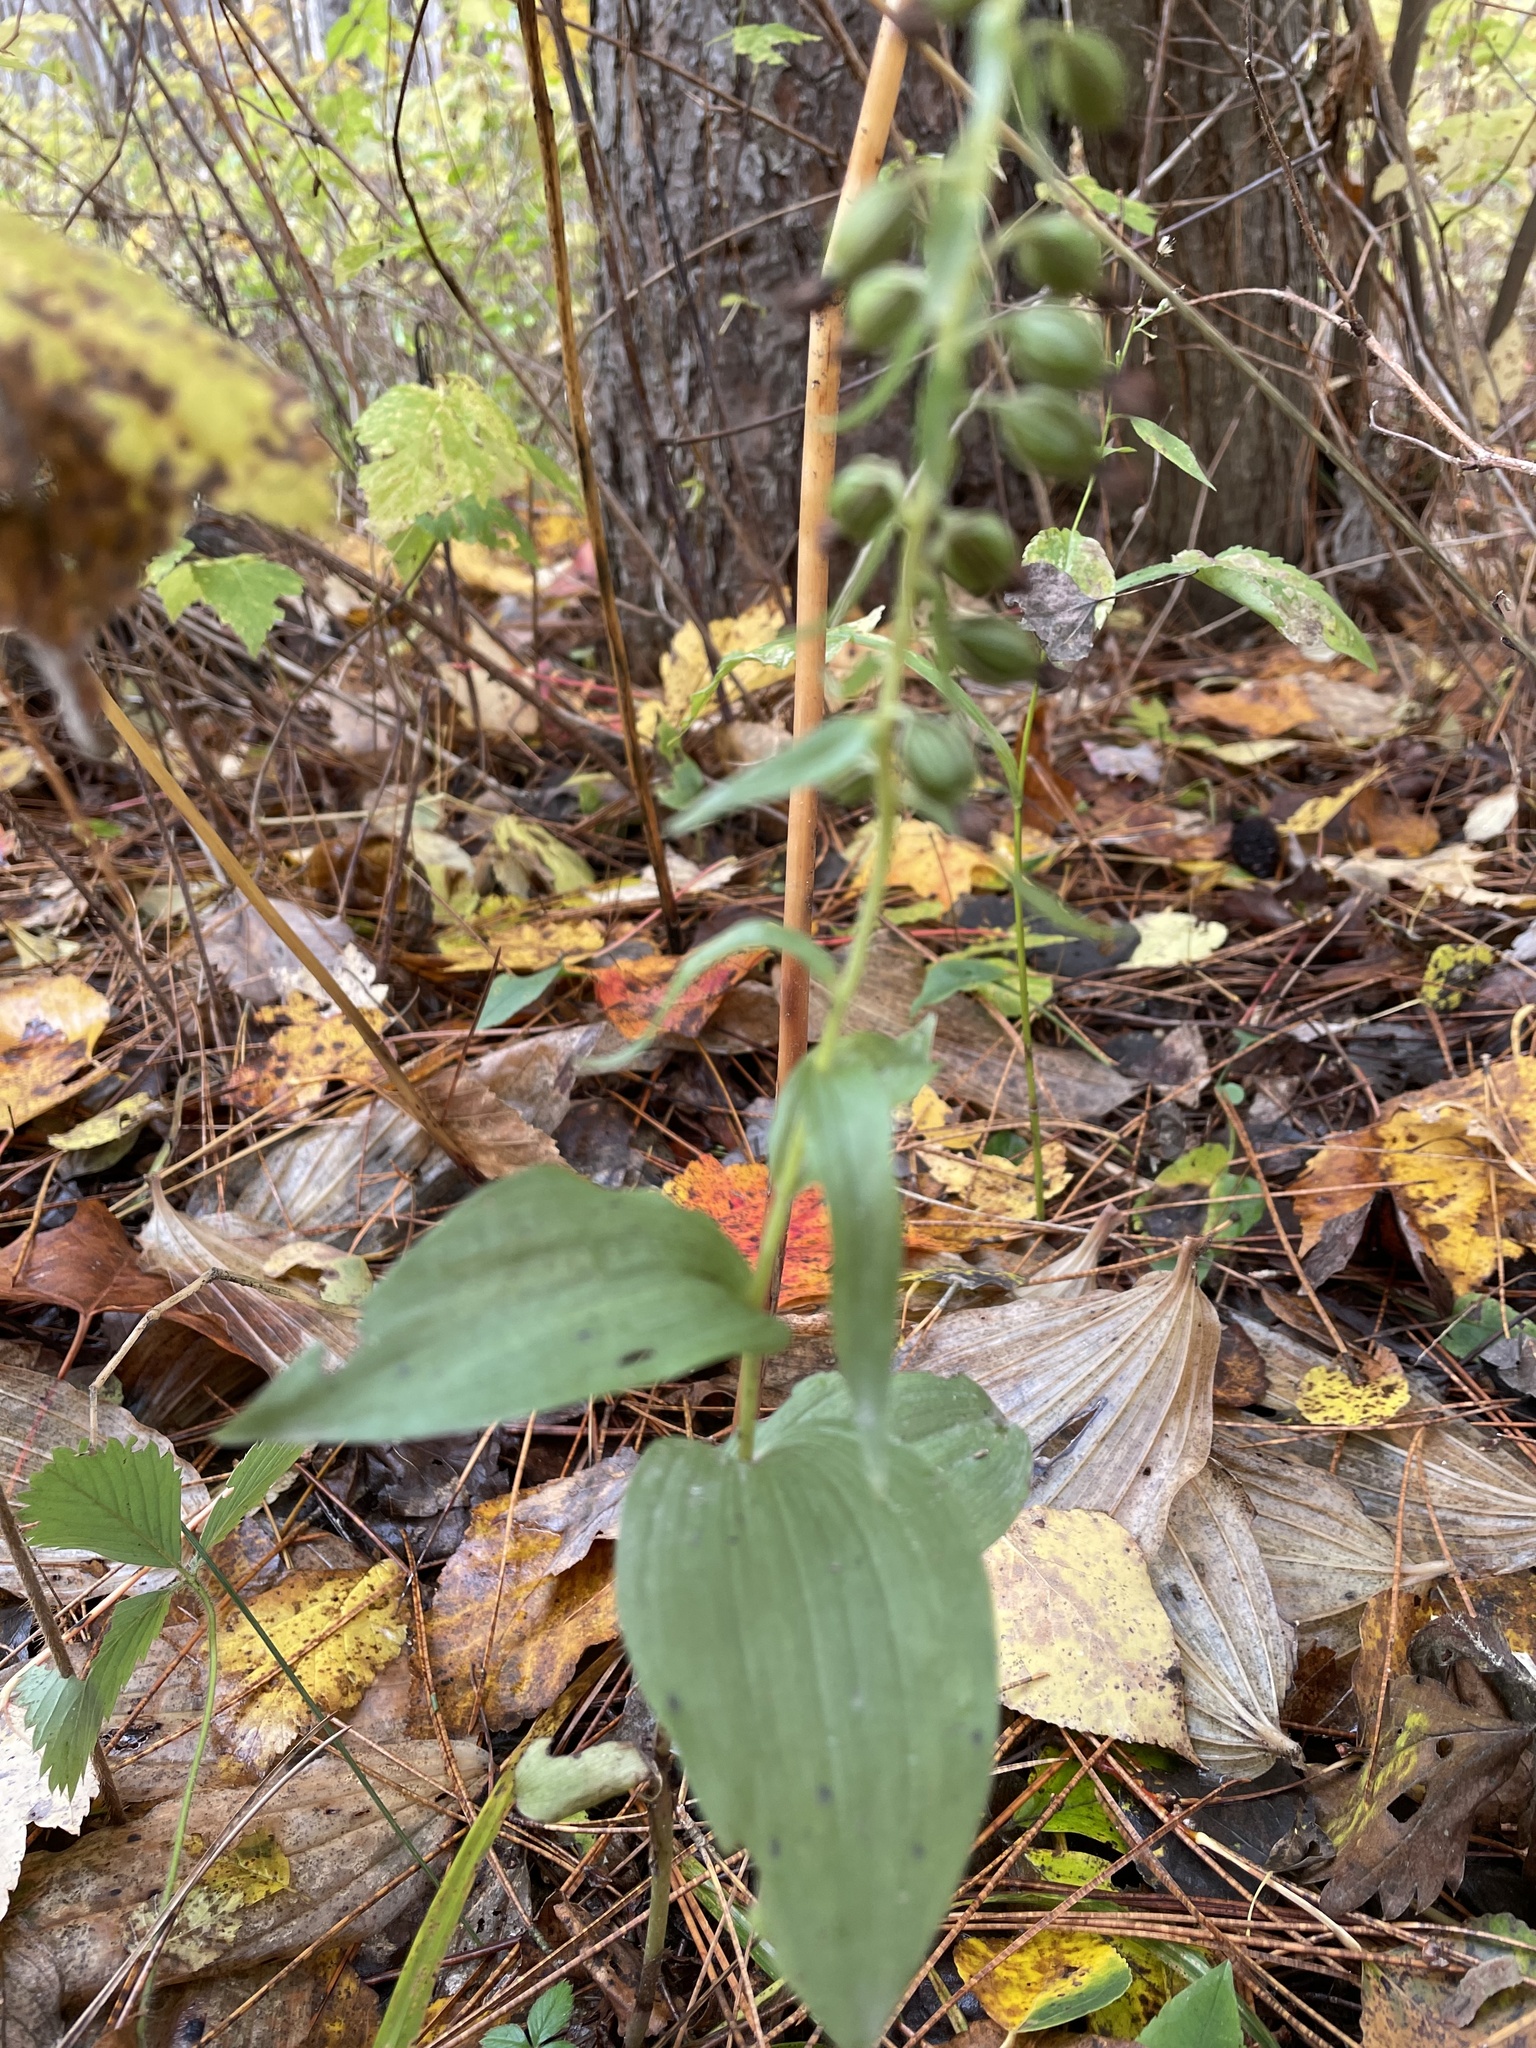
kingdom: Plantae
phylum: Tracheophyta
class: Liliopsida
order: Asparagales
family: Orchidaceae
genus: Epipactis
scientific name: Epipactis helleborine
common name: Broad-leaved helleborine
